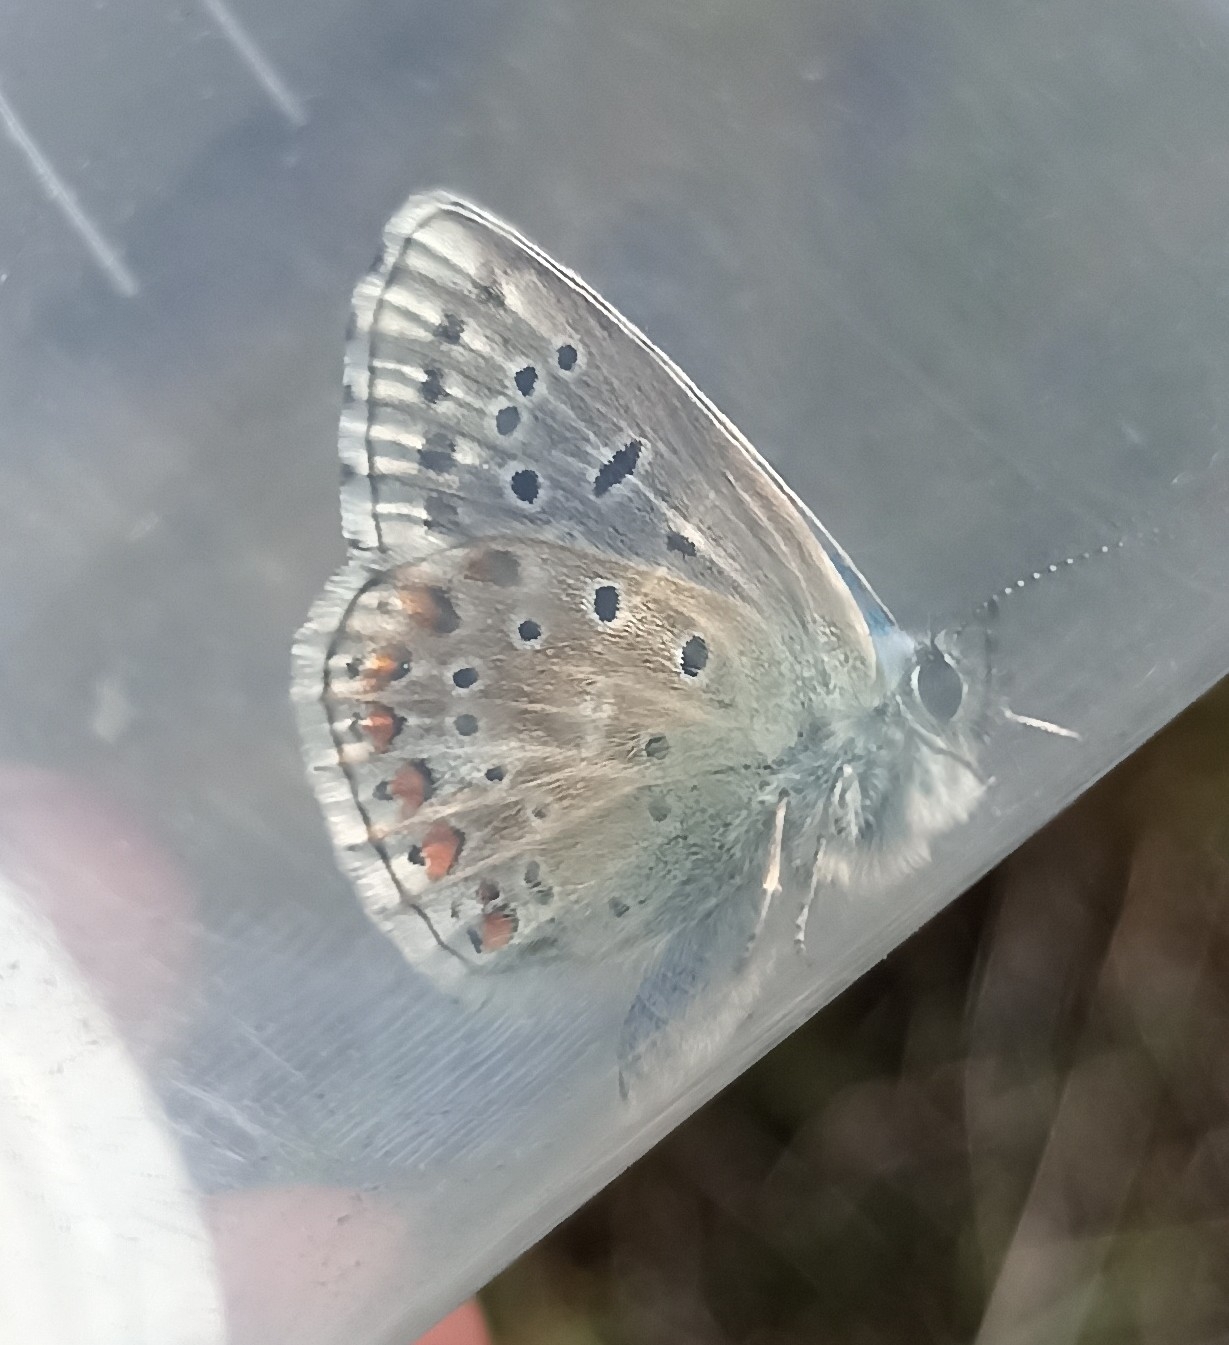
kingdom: Animalia
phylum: Arthropoda
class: Insecta
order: Lepidoptera
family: Lycaenidae
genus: Lysandra
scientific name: Lysandra bellargus
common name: Adonis blue
